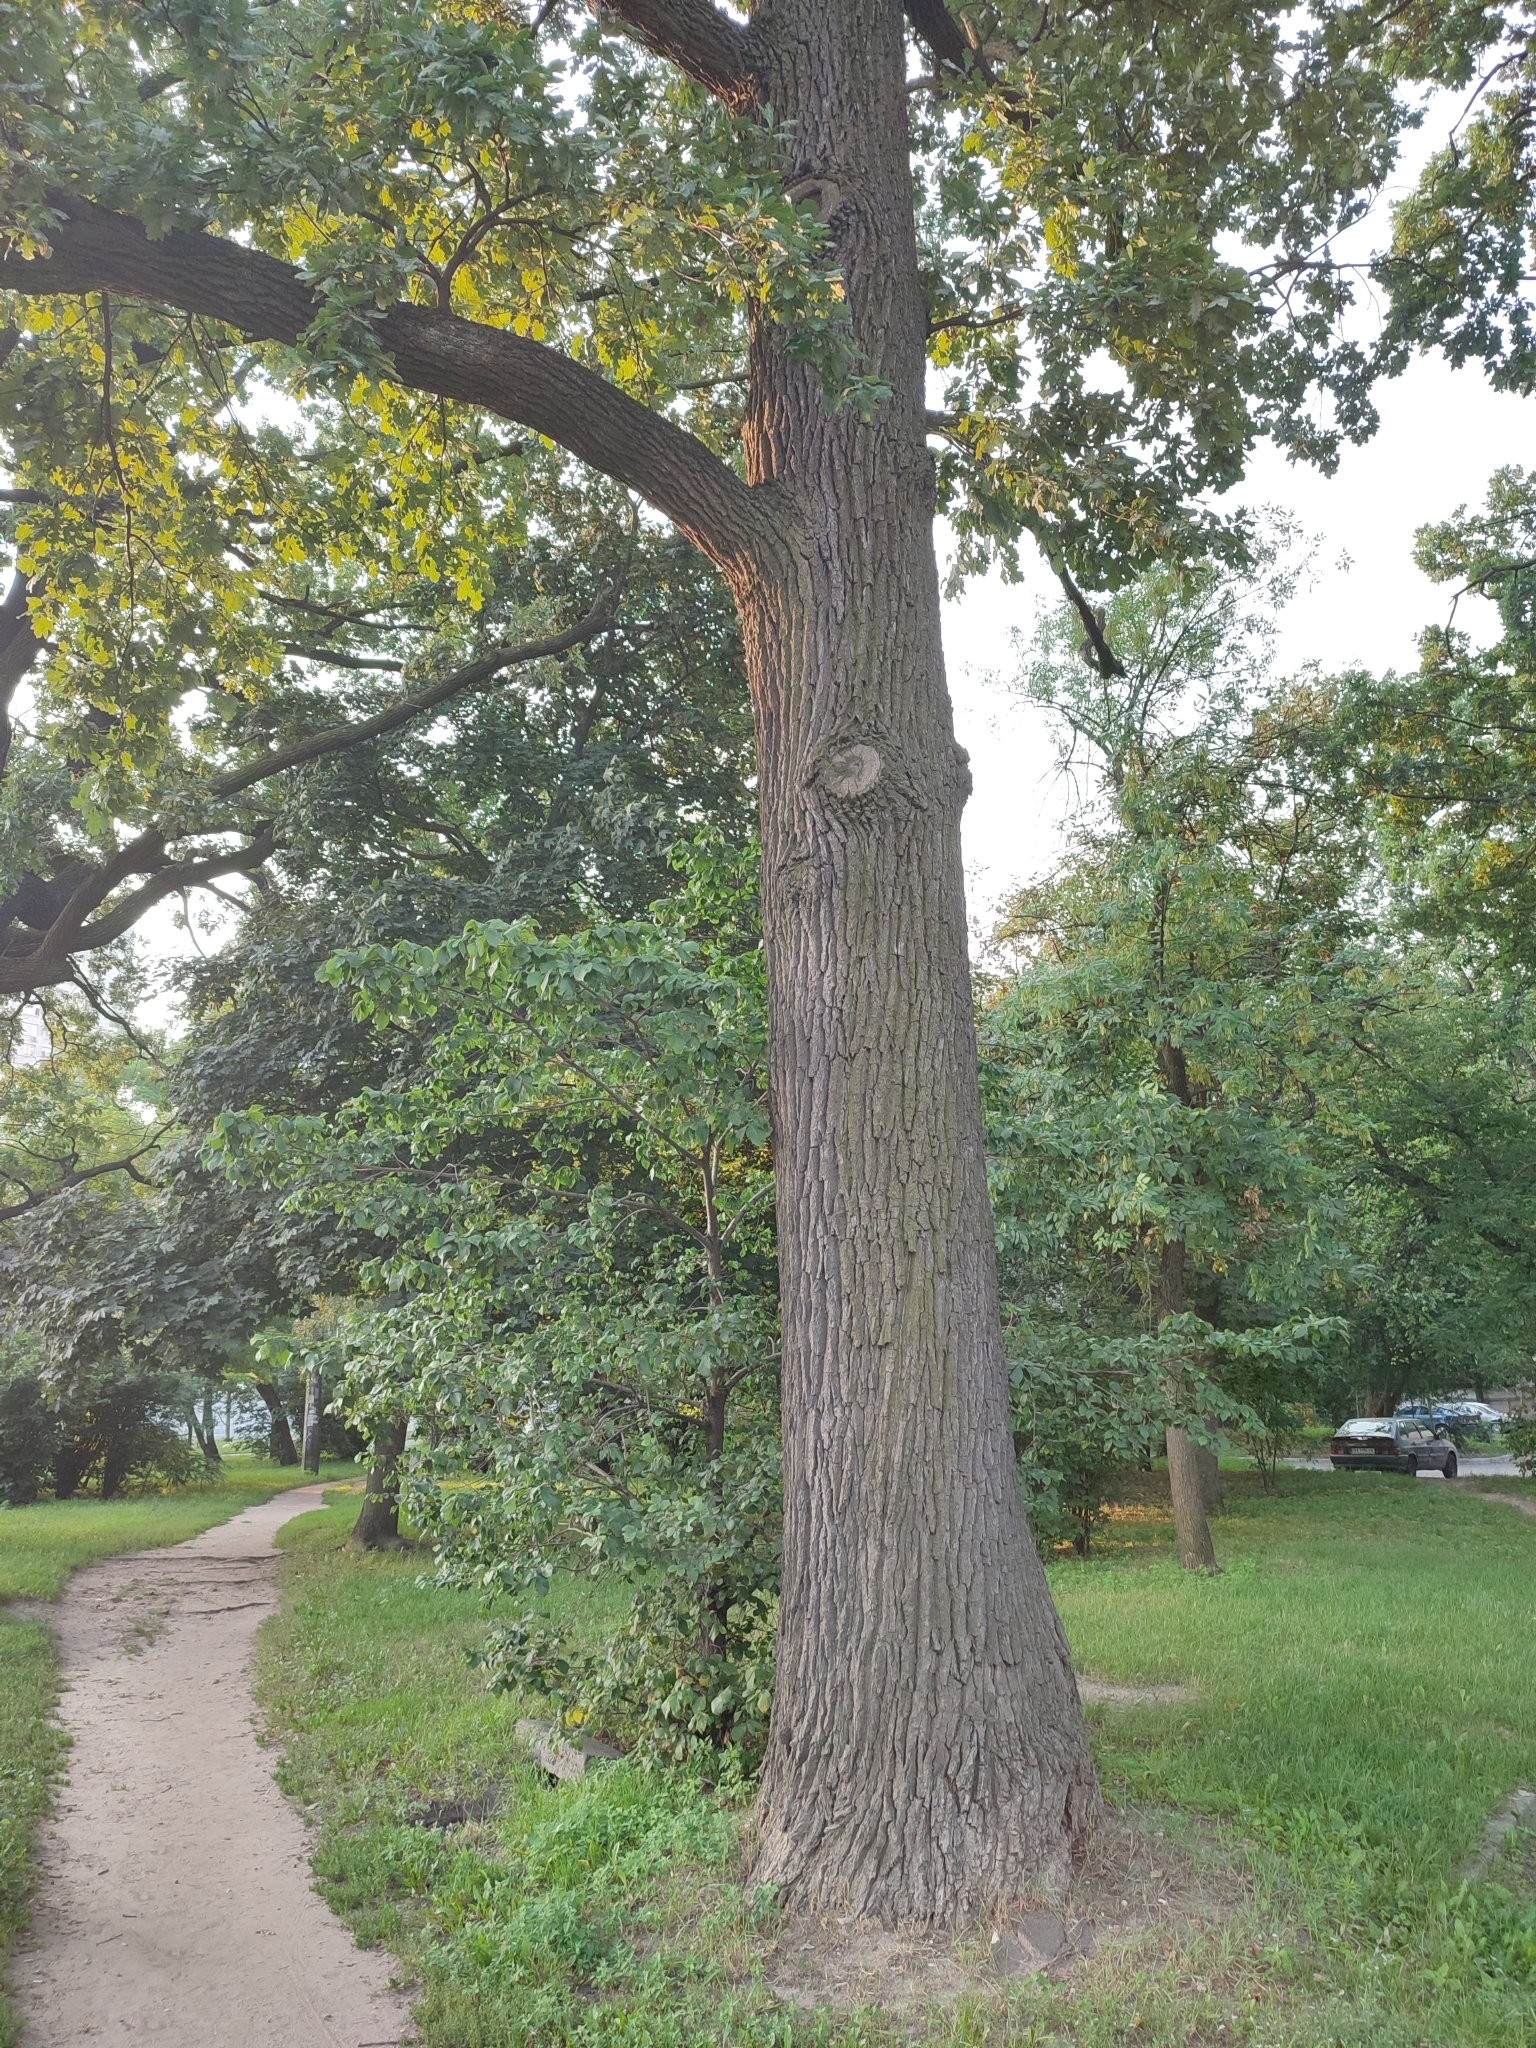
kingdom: Plantae
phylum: Tracheophyta
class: Magnoliopsida
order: Fagales
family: Fagaceae
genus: Quercus
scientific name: Quercus robur
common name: Pedunculate oak
